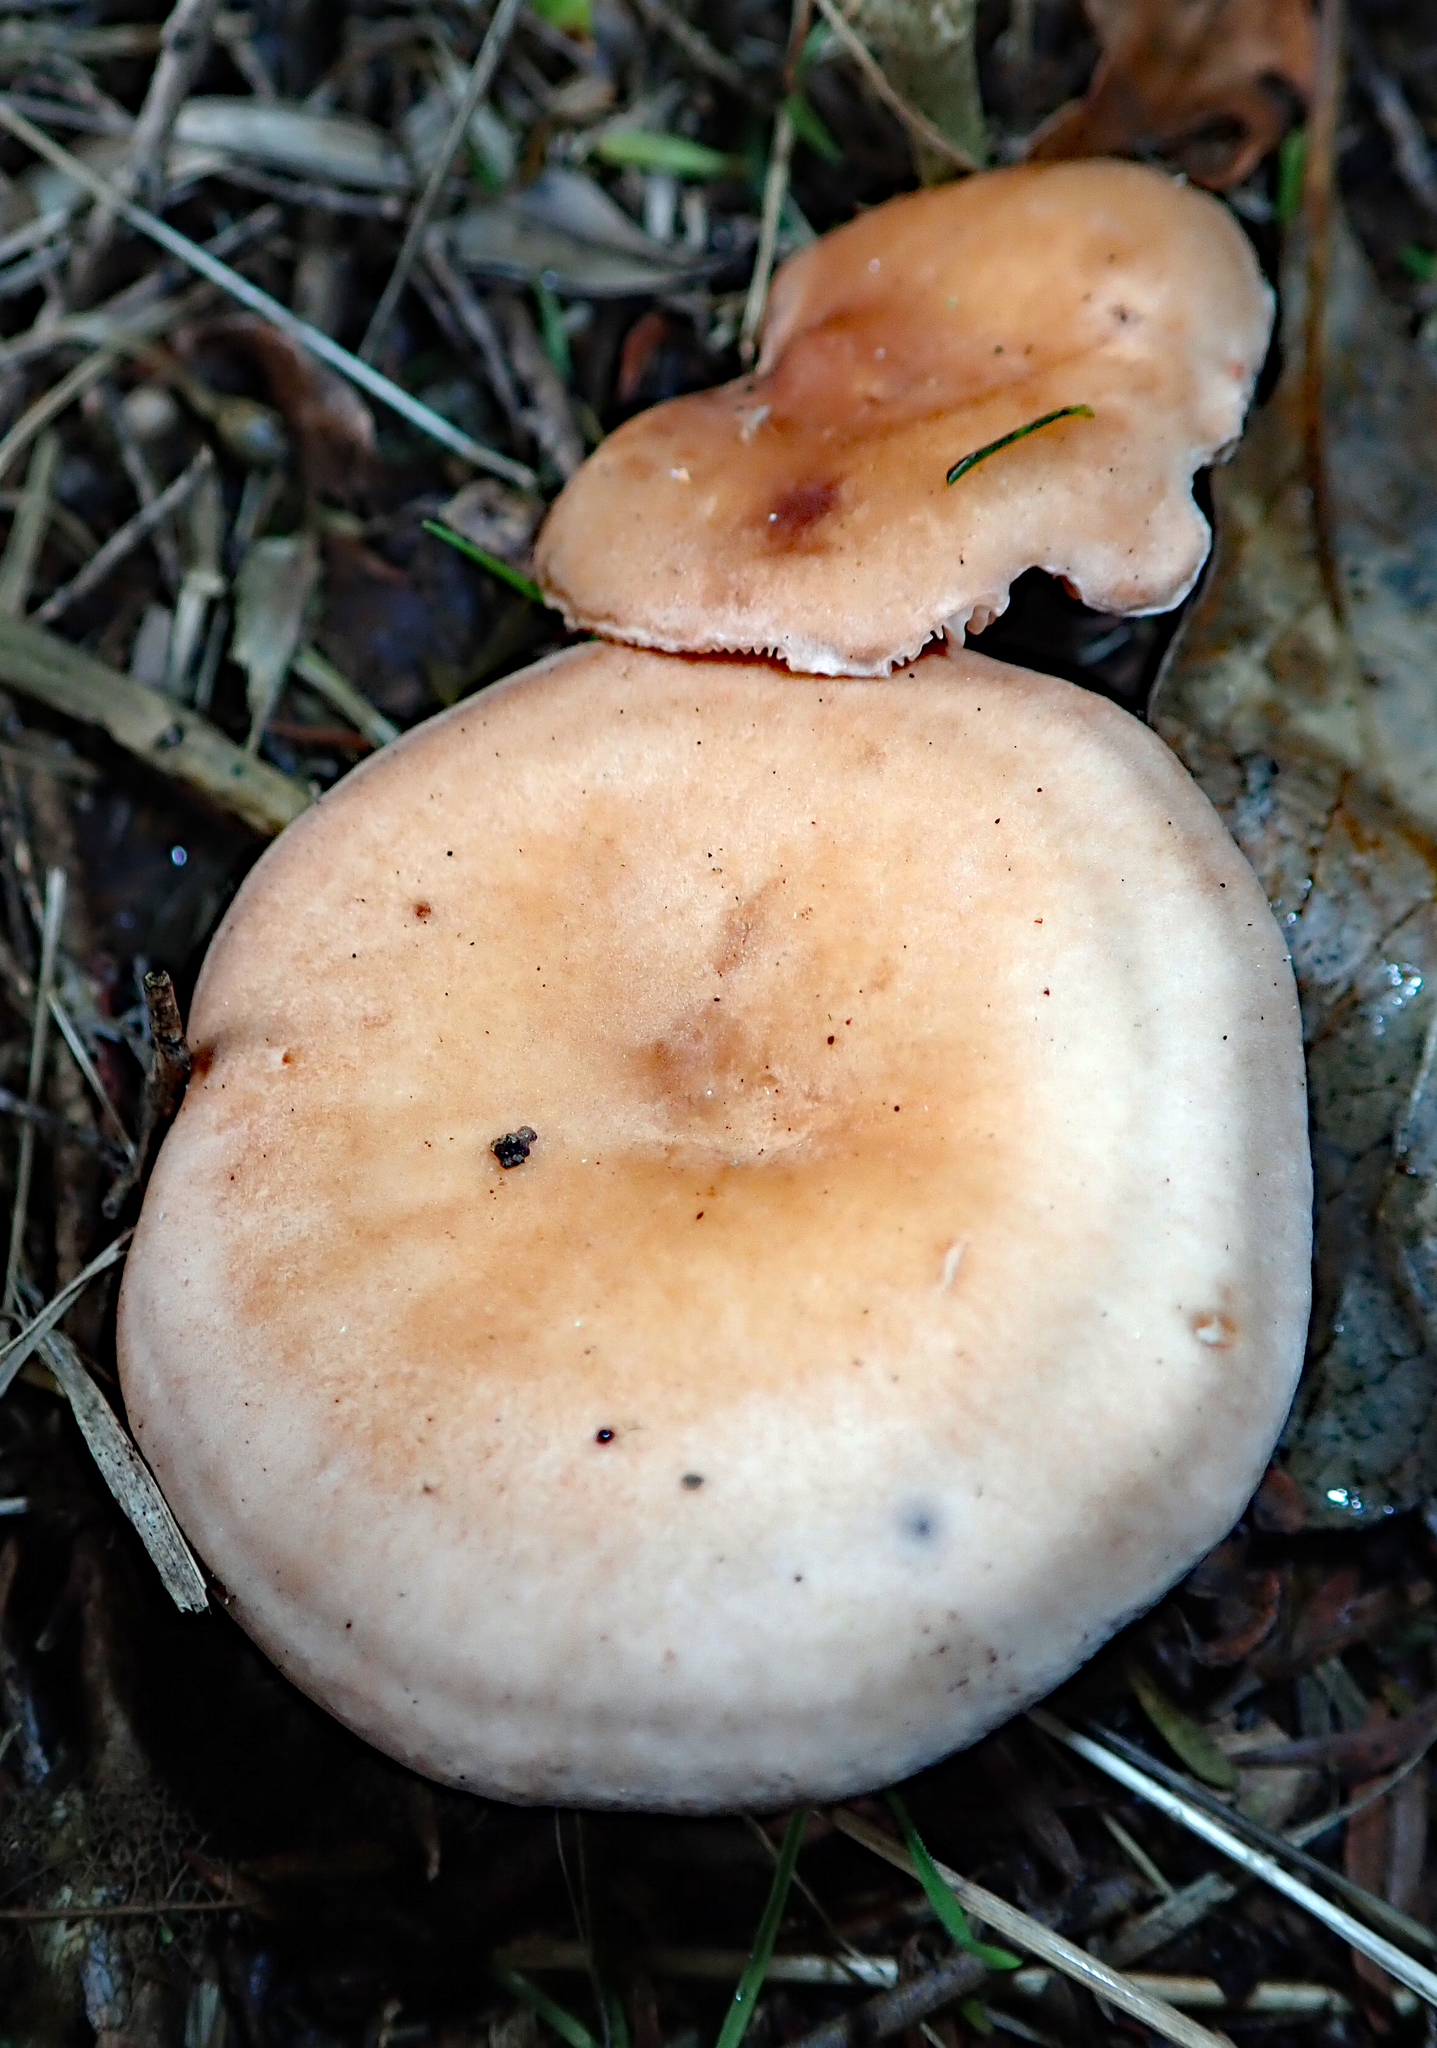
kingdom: Fungi
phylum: Basidiomycota
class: Agaricomycetes
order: Agaricales
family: Entolomataceae
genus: Clitopilus
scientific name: Clitopilus piperitus
